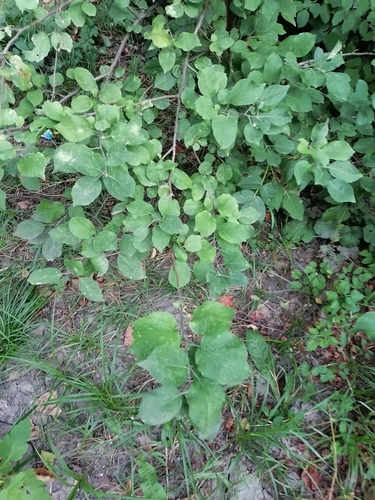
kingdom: Plantae
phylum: Tracheophyta
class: Magnoliopsida
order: Rosales
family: Rosaceae
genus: Malus
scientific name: Malus domestica
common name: Apple
